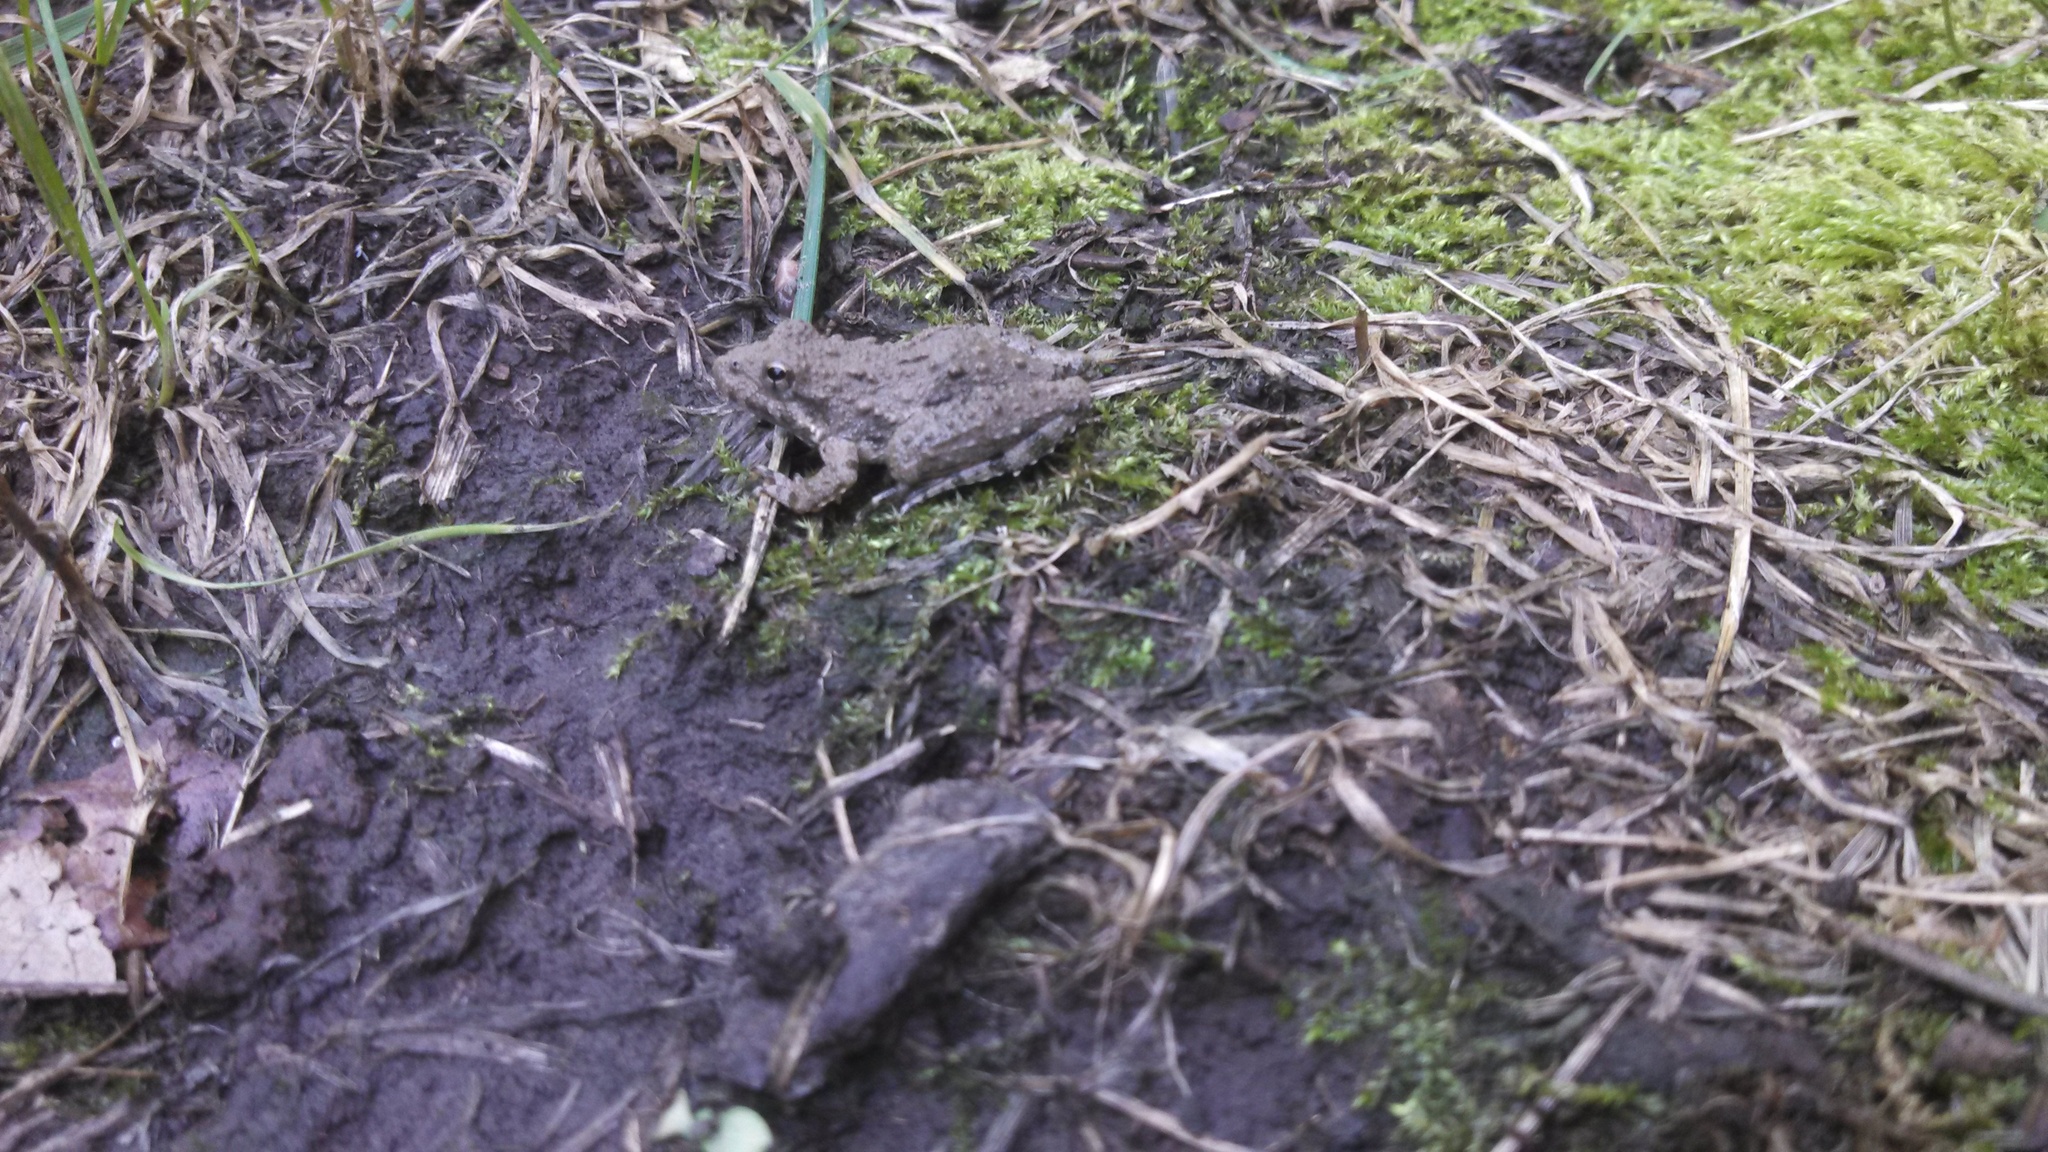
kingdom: Animalia
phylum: Chordata
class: Amphibia
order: Anura
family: Hylidae
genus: Acris
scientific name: Acris blanchardi
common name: Blanchard's cricket frog
